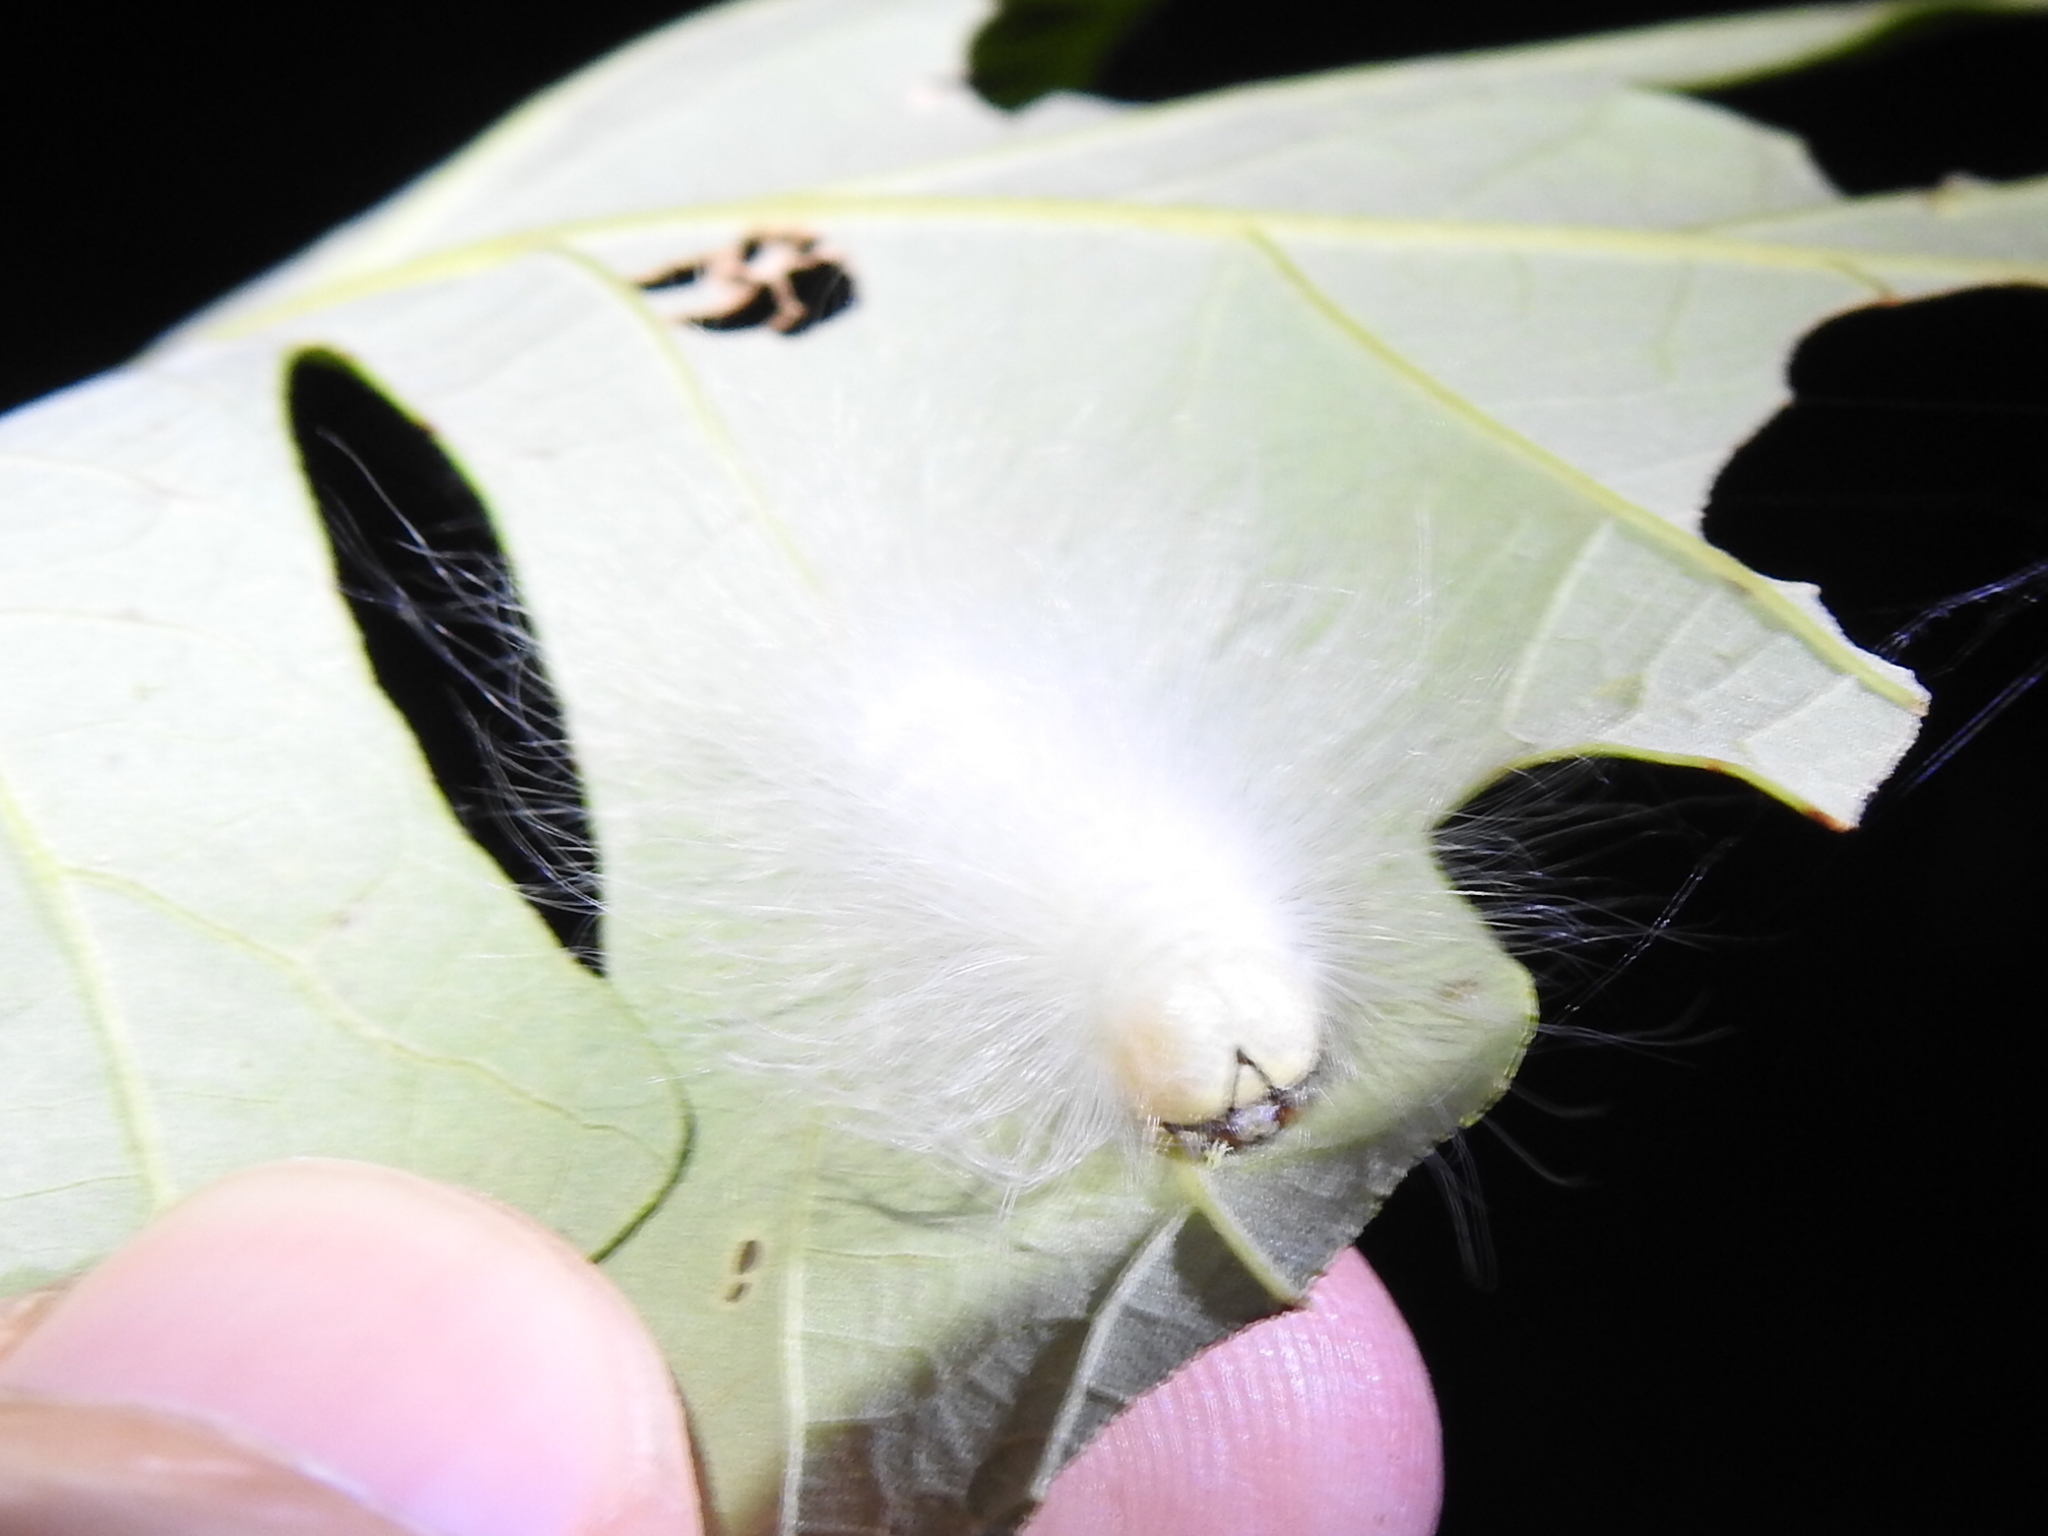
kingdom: Animalia
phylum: Arthropoda
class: Insecta
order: Lepidoptera
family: Noctuidae
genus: Charadra
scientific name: Charadra deridens
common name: Marbled tuffet
